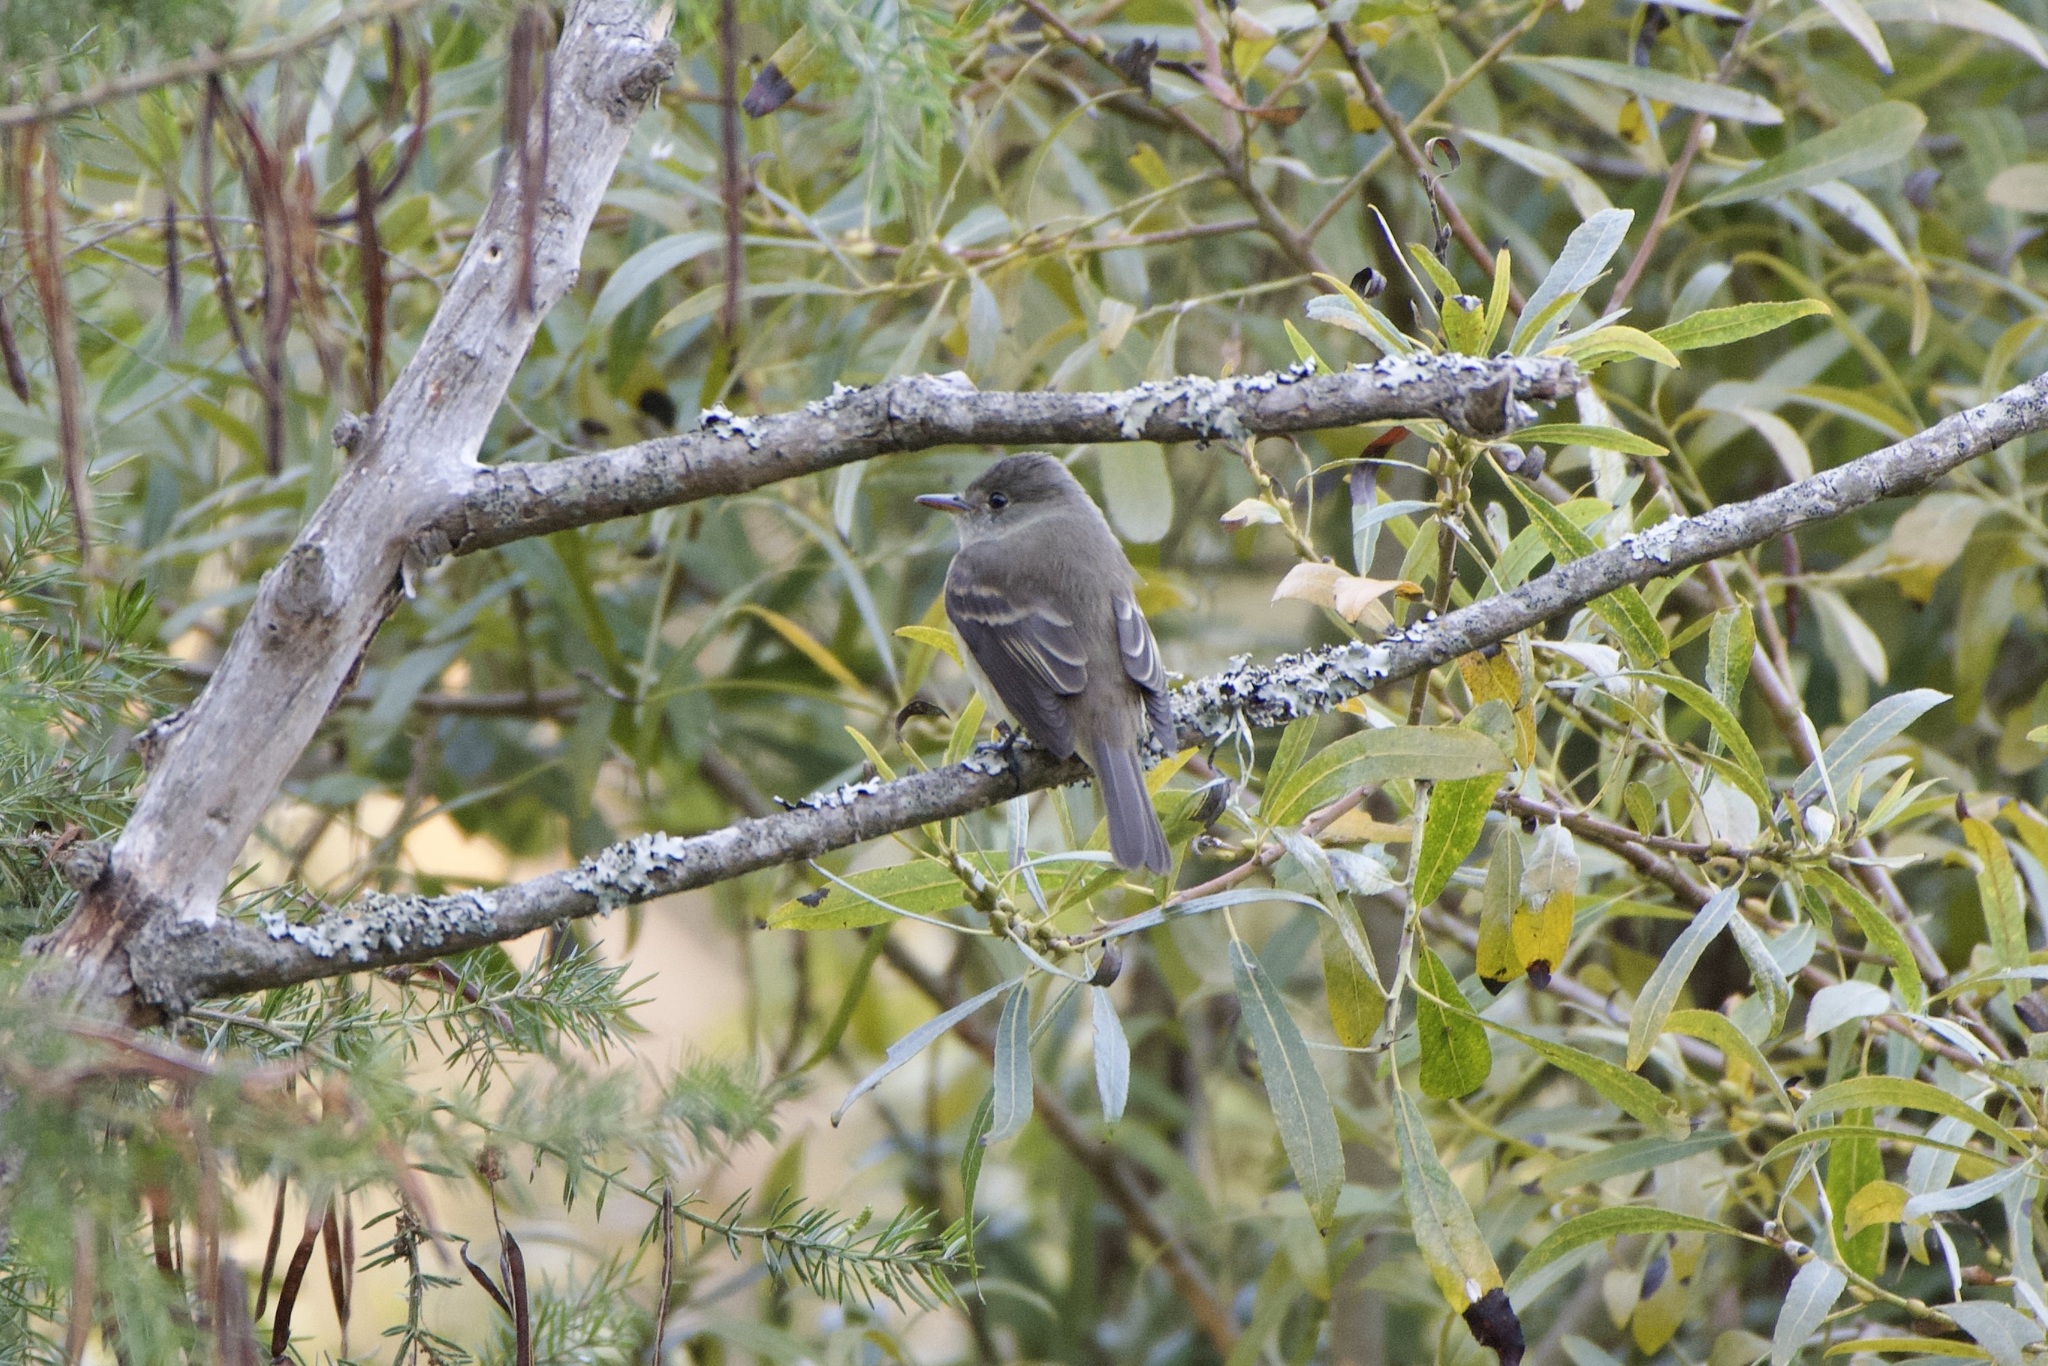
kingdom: Animalia
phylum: Chordata
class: Aves
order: Passeriformes
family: Tyrannidae
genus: Empidonax
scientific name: Empidonax traillii
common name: Willow flycatcher
